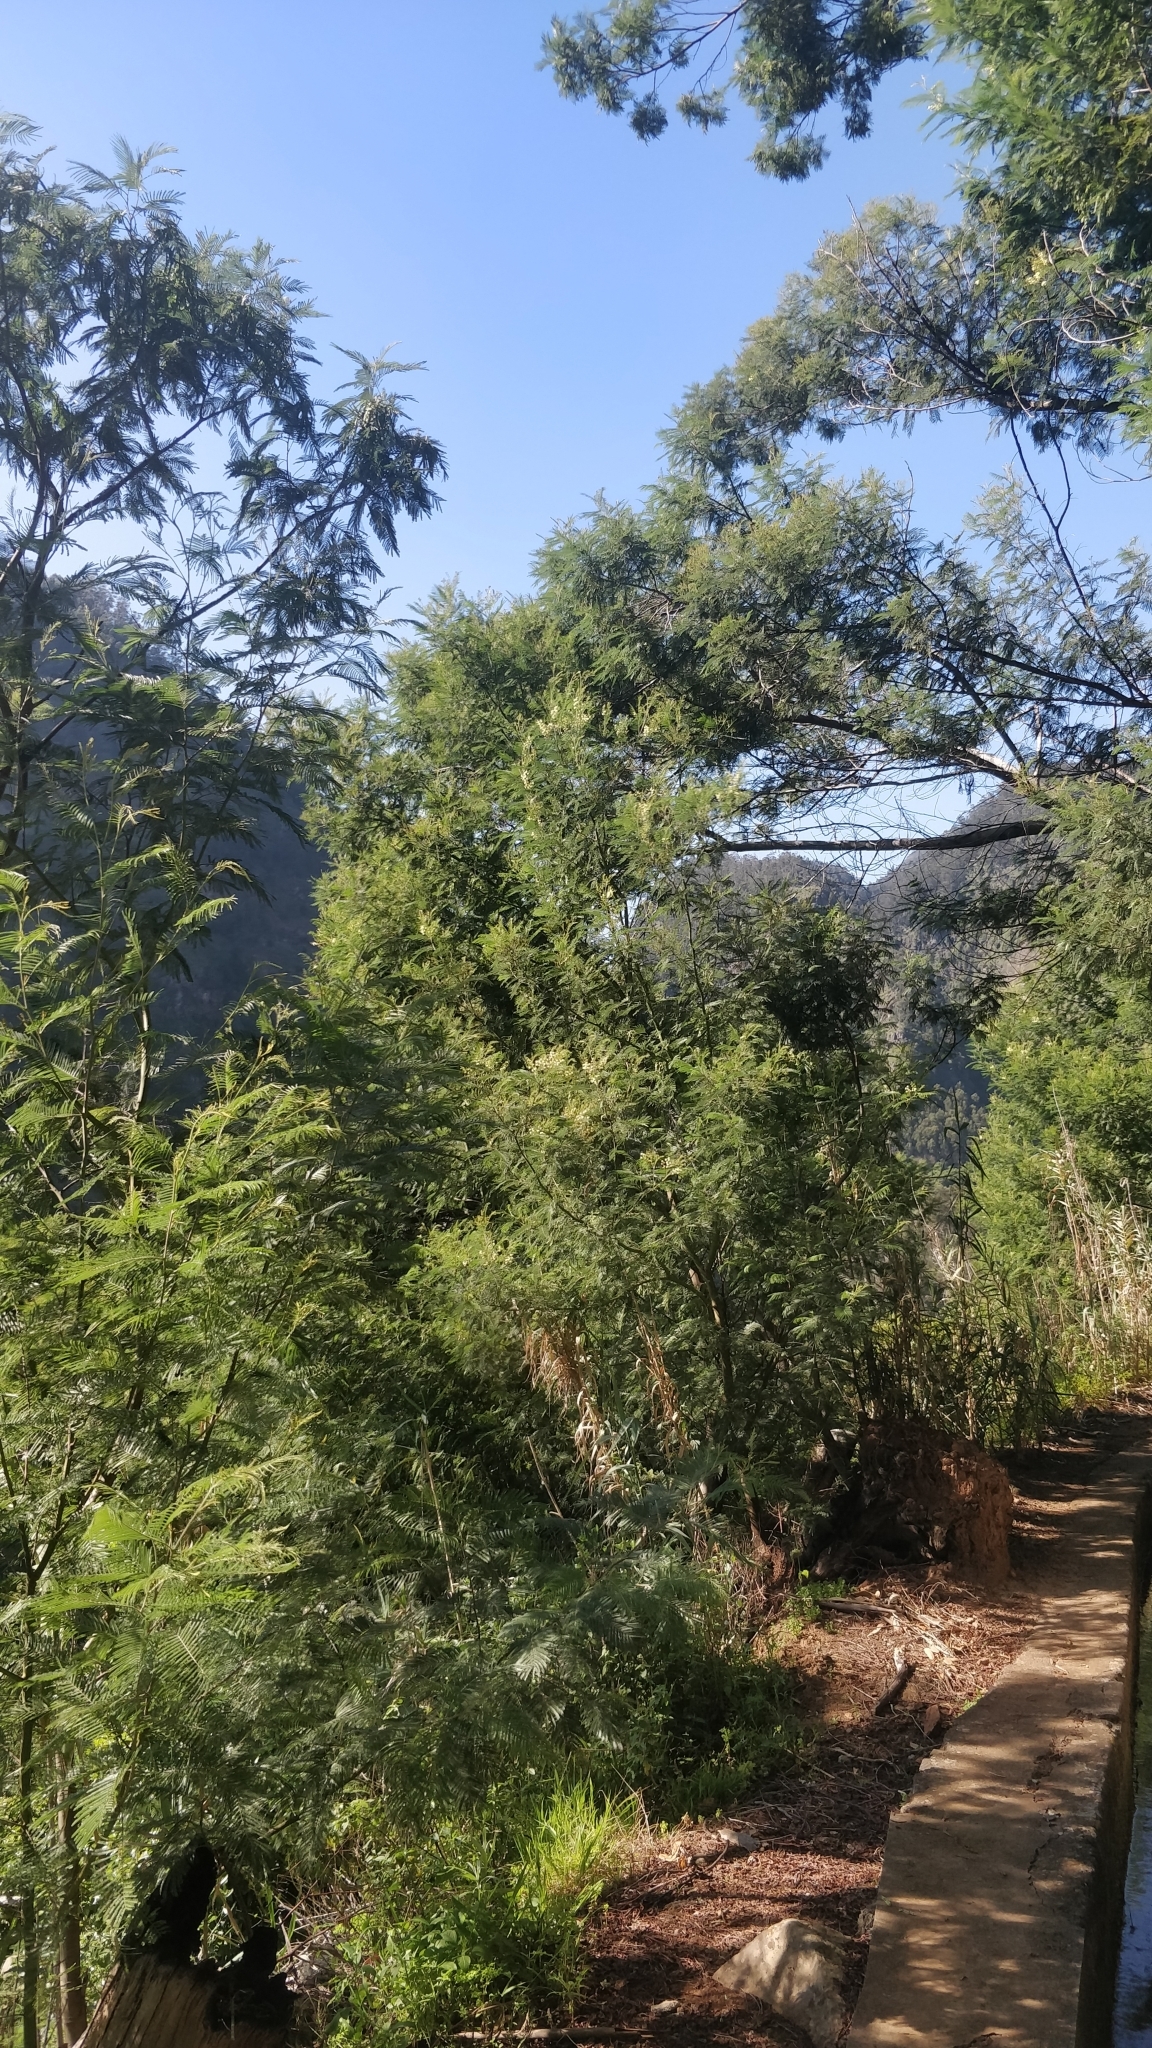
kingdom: Plantae
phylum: Tracheophyta
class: Magnoliopsida
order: Fabales
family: Fabaceae
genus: Acacia
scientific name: Acacia mearnsii
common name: Black wattle
